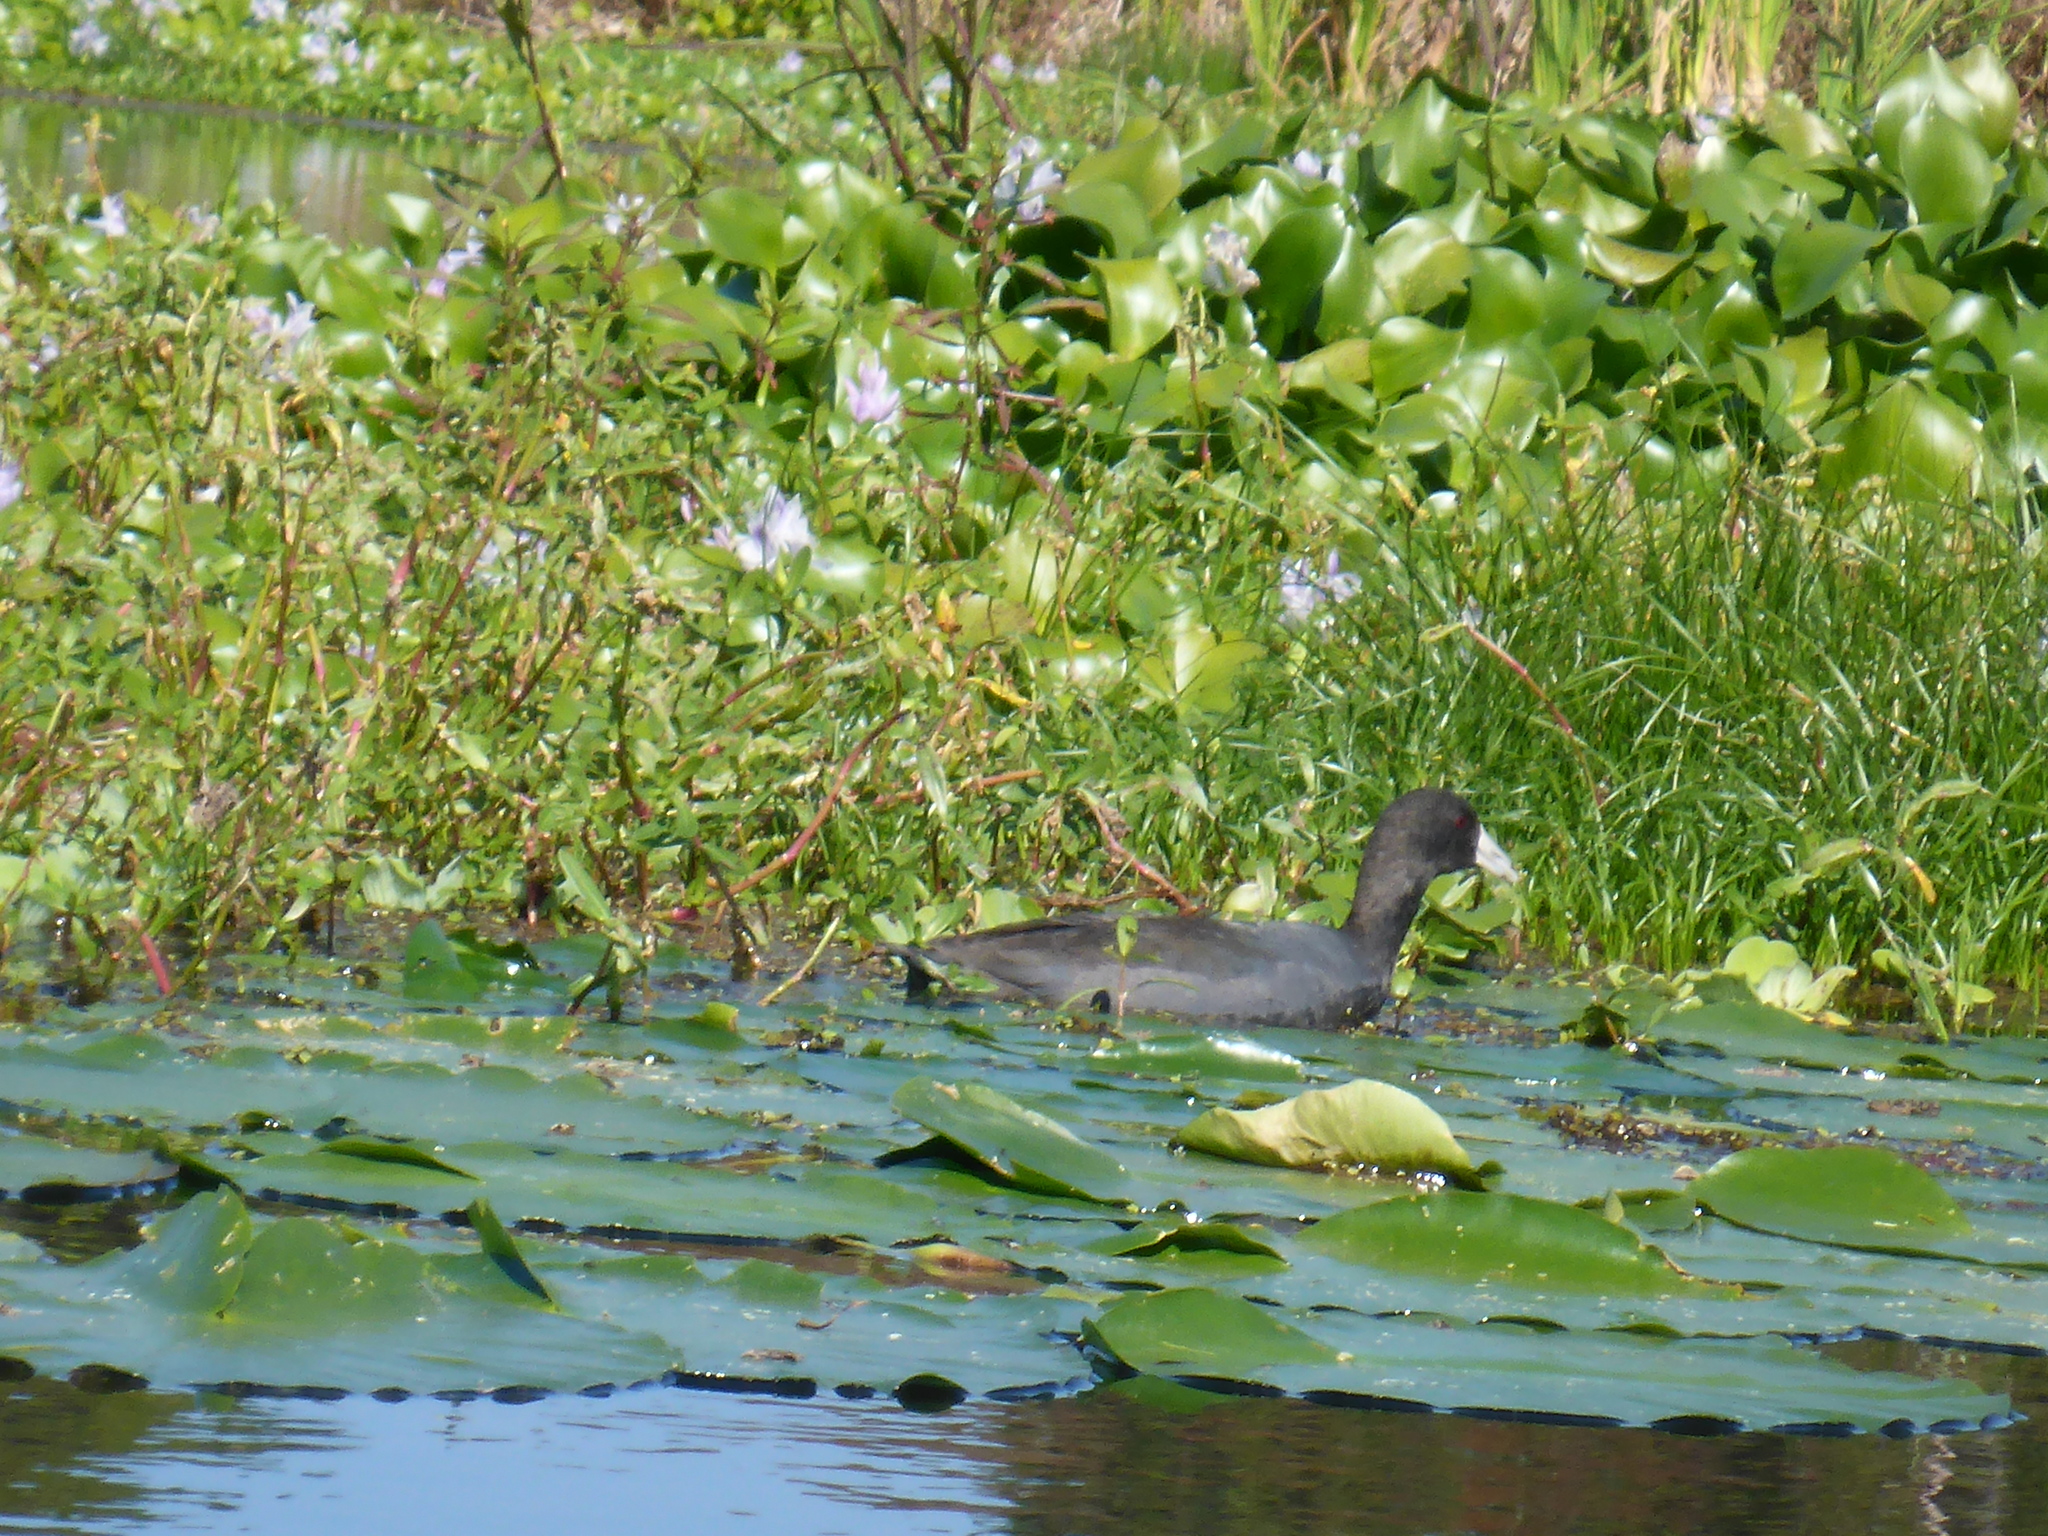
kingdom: Animalia
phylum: Chordata
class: Aves
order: Gruiformes
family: Rallidae
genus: Fulica
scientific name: Fulica americana
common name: American coot
